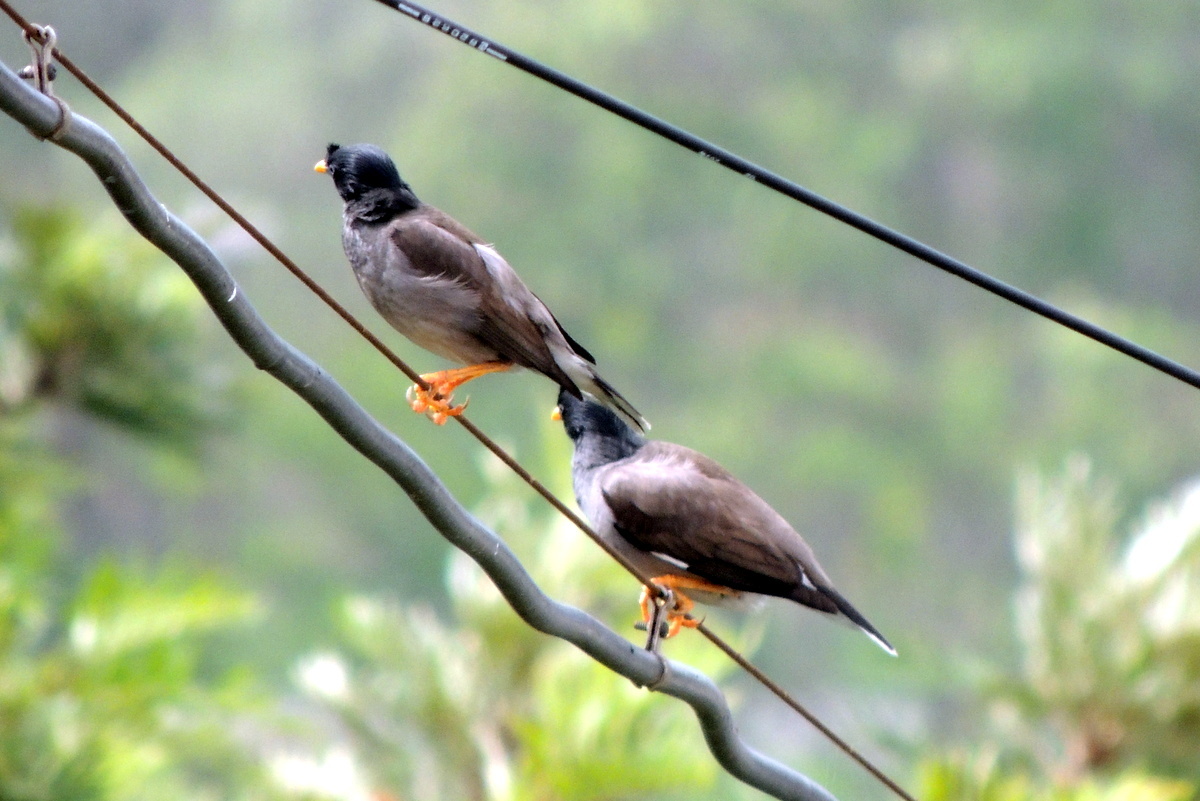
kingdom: Animalia
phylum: Chordata
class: Aves
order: Passeriformes
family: Sturnidae
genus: Acridotheres
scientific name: Acridotheres fuscus
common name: Jungle myna
